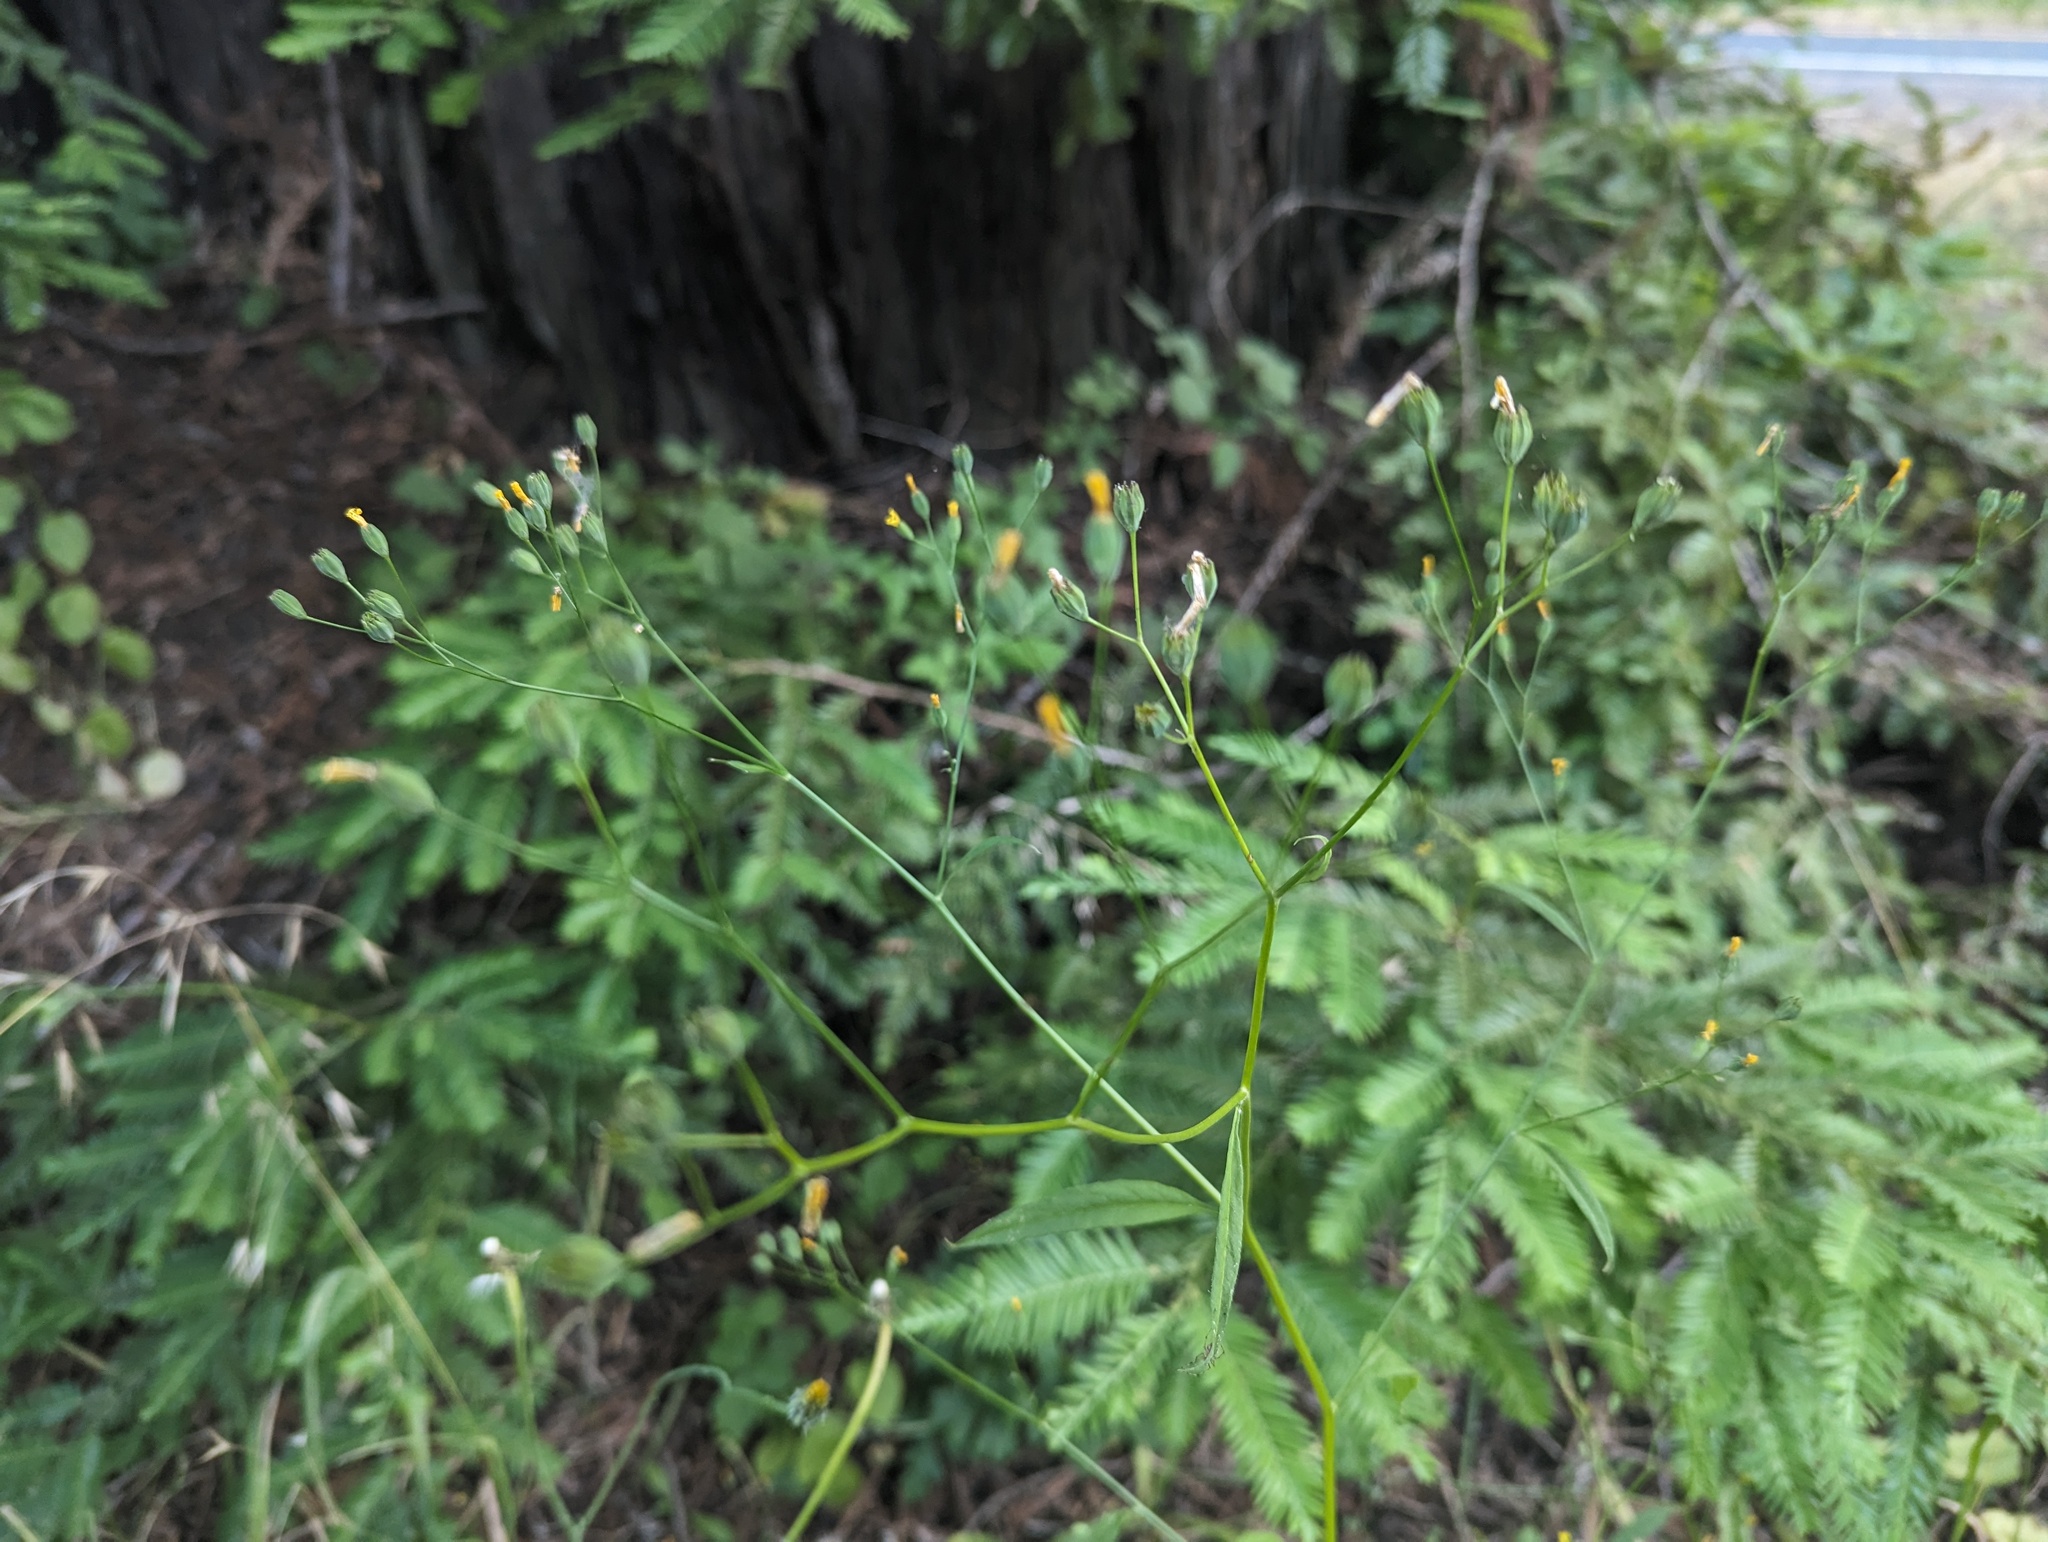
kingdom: Plantae
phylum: Tracheophyta
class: Magnoliopsida
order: Asterales
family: Asteraceae
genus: Lapsana
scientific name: Lapsana communis
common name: Nipplewort
